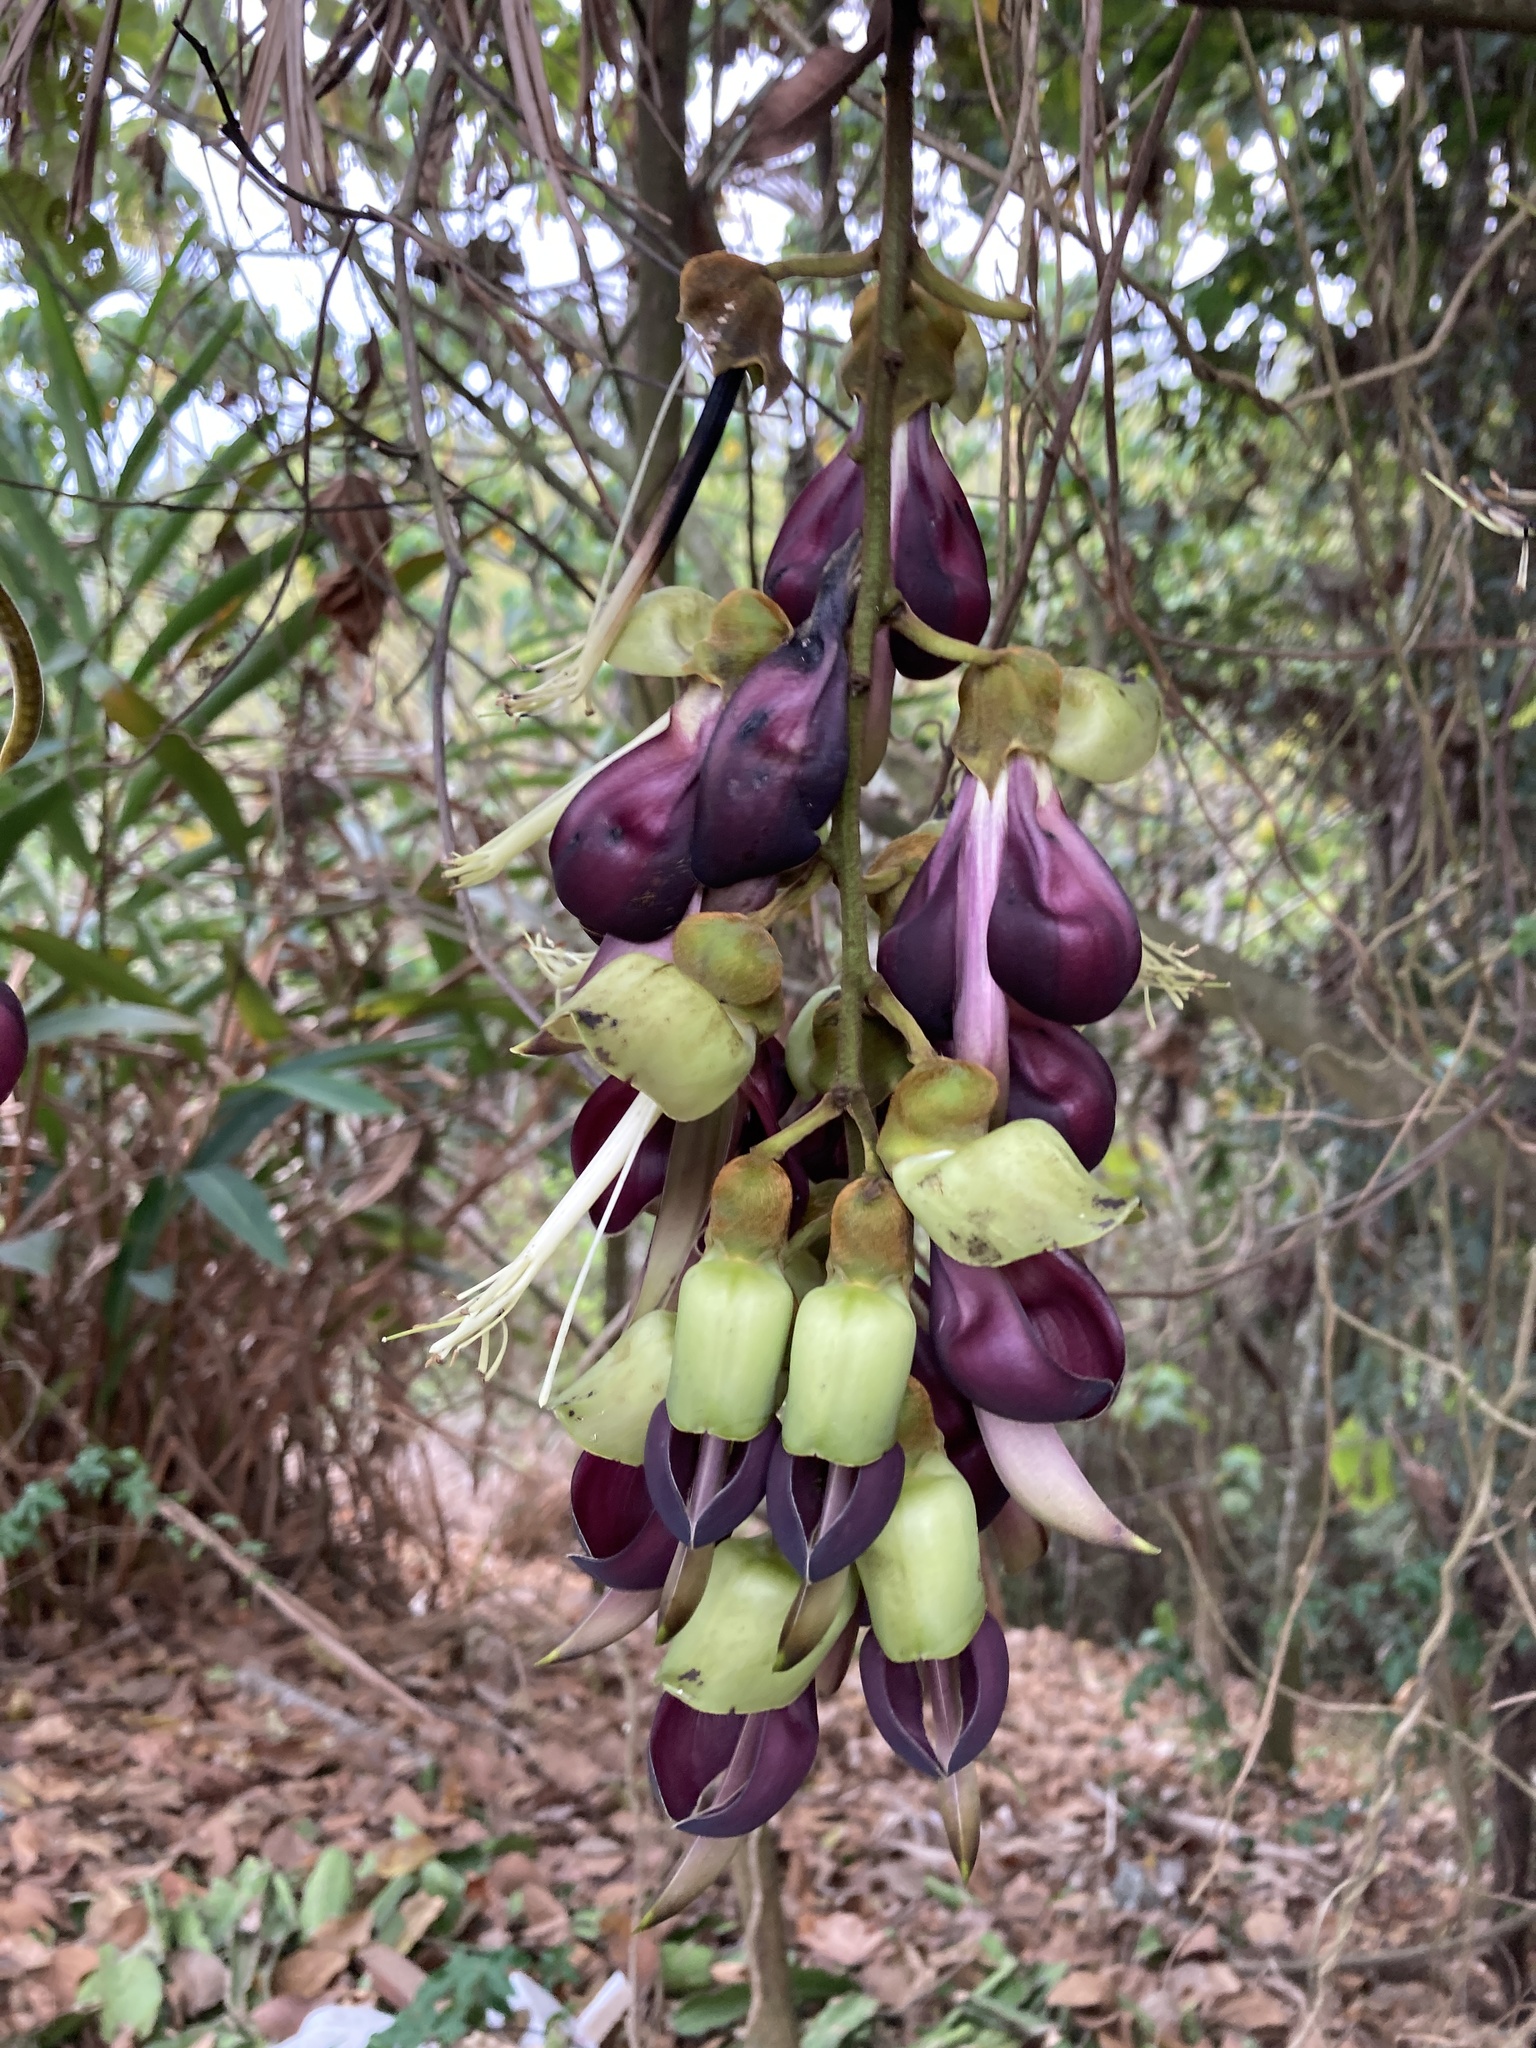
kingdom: Plantae
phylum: Tracheophyta
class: Magnoliopsida
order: Fabales
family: Fabaceae
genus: Mucuna
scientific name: Mucuna macrocarpa
